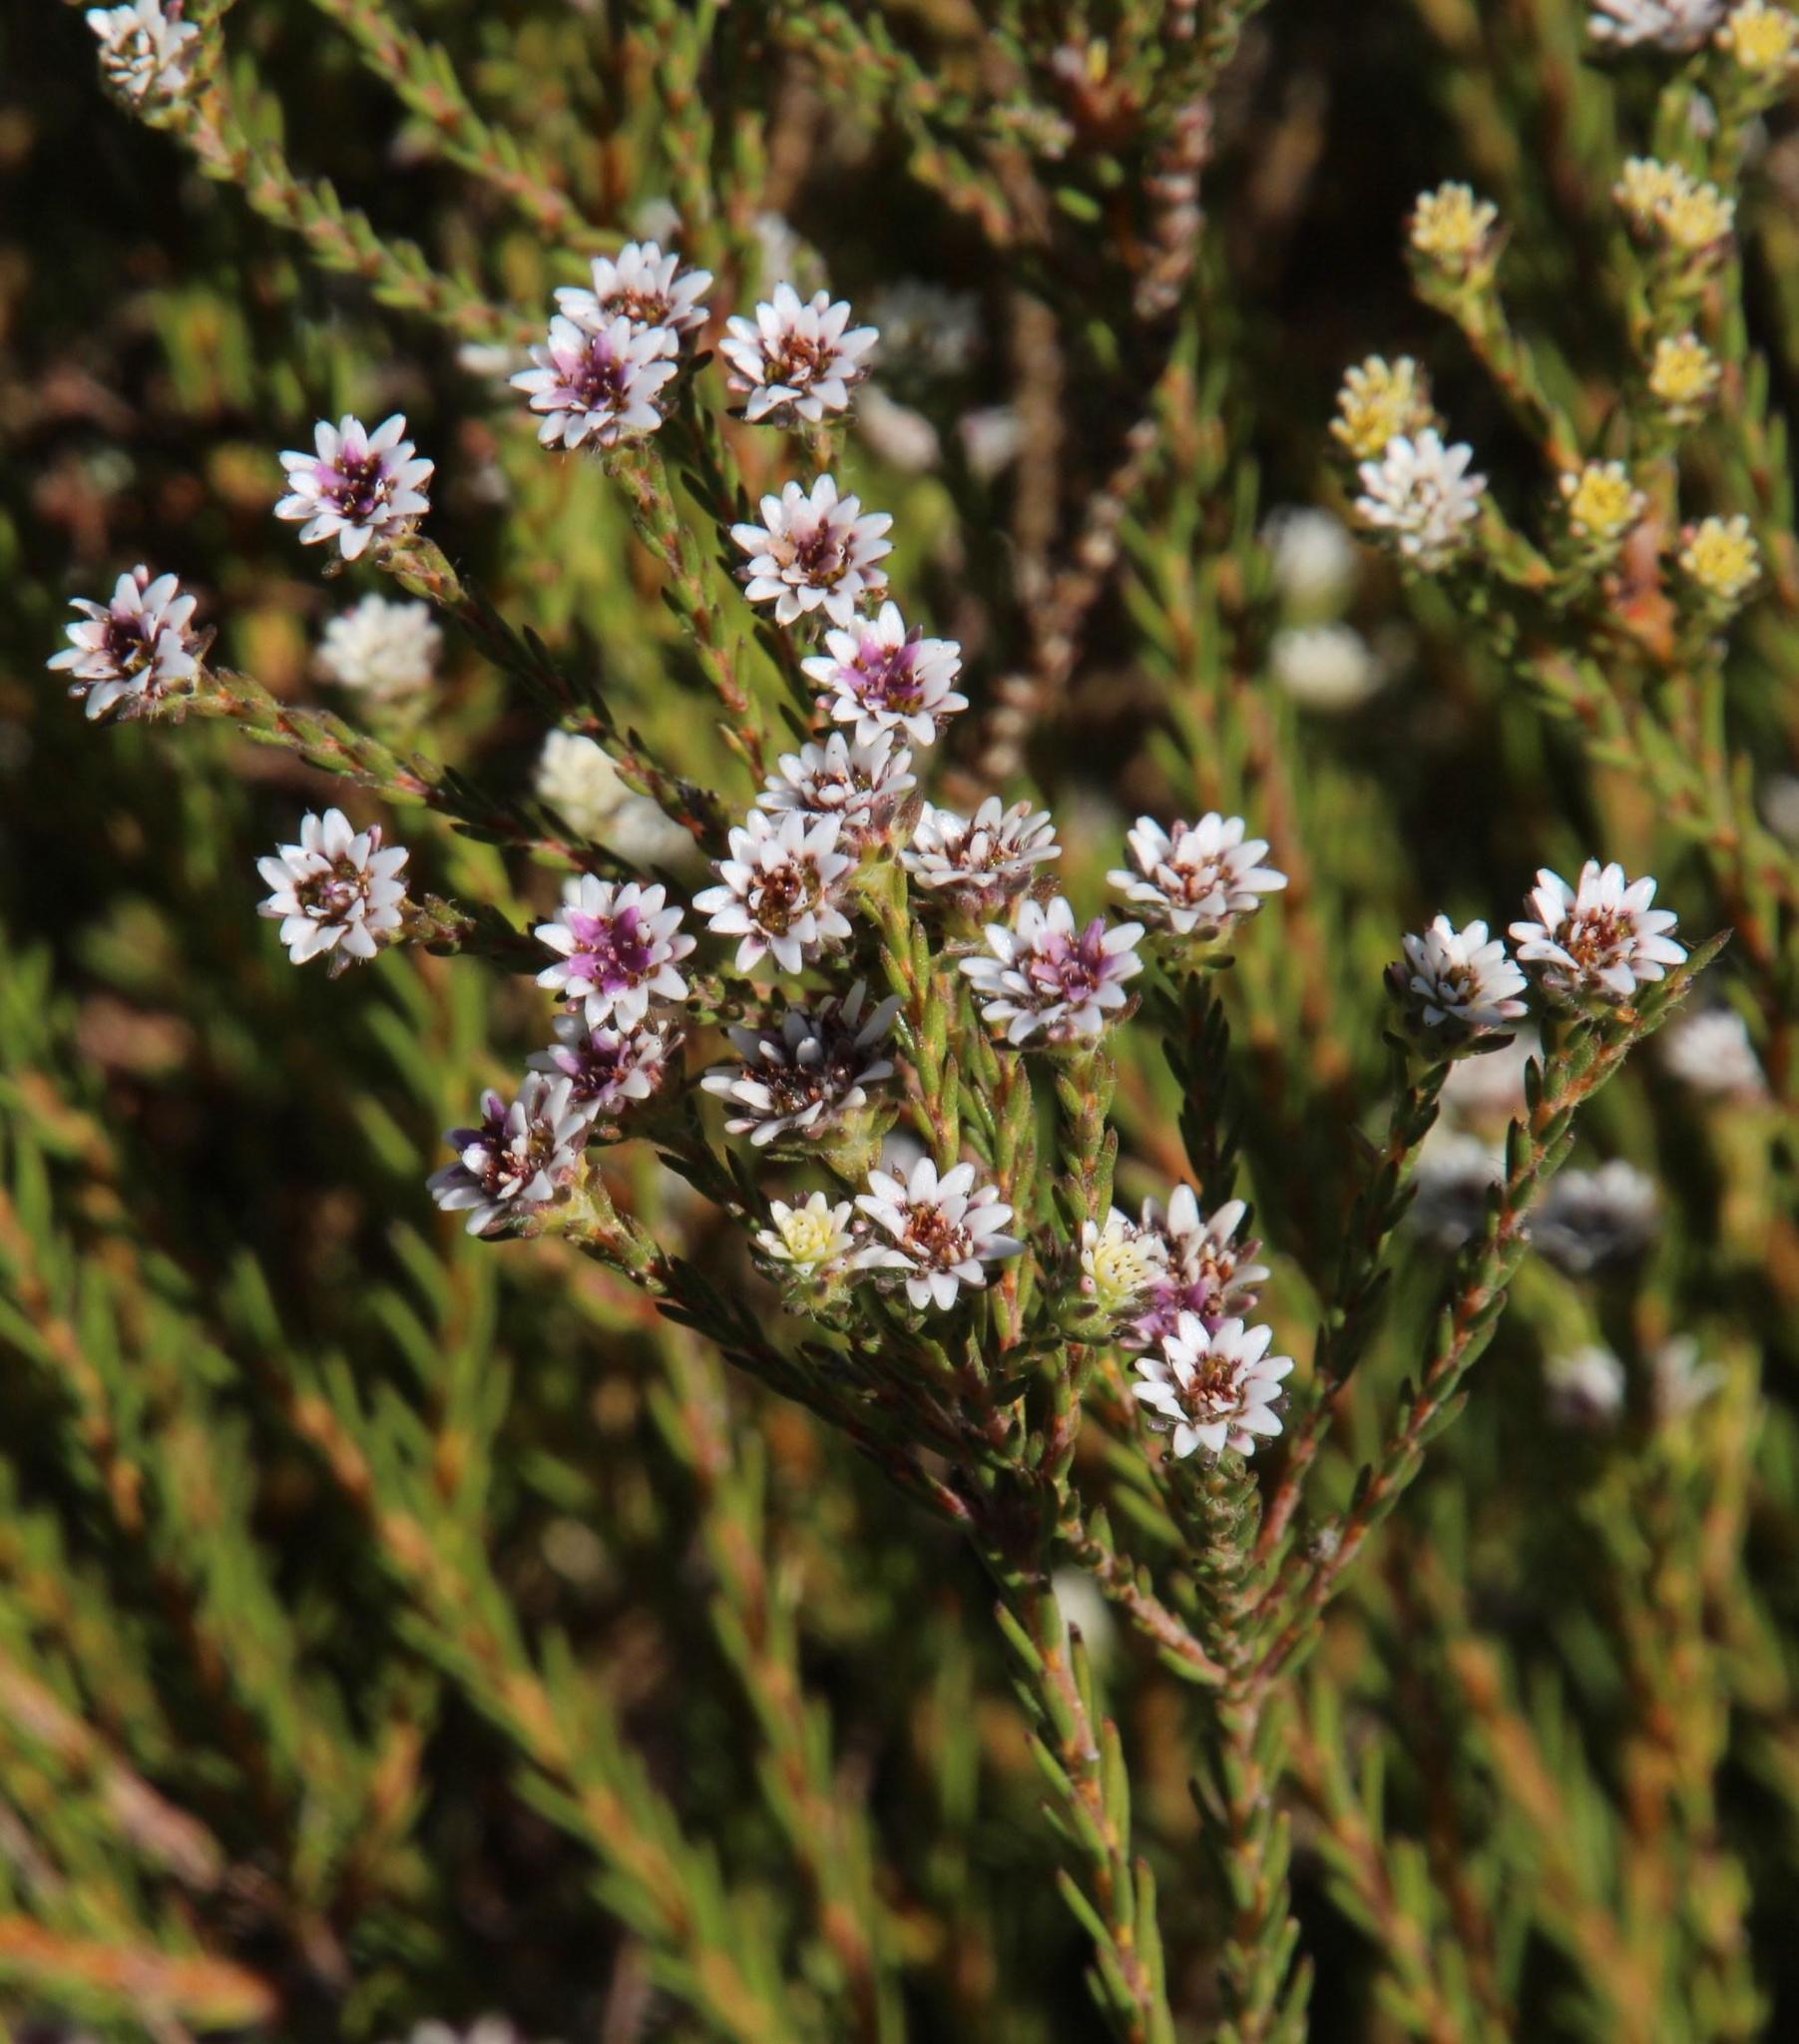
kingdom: Plantae
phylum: Tracheophyta
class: Magnoliopsida
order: Bruniales
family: Bruniaceae
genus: Staavia
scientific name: Staavia radiata
